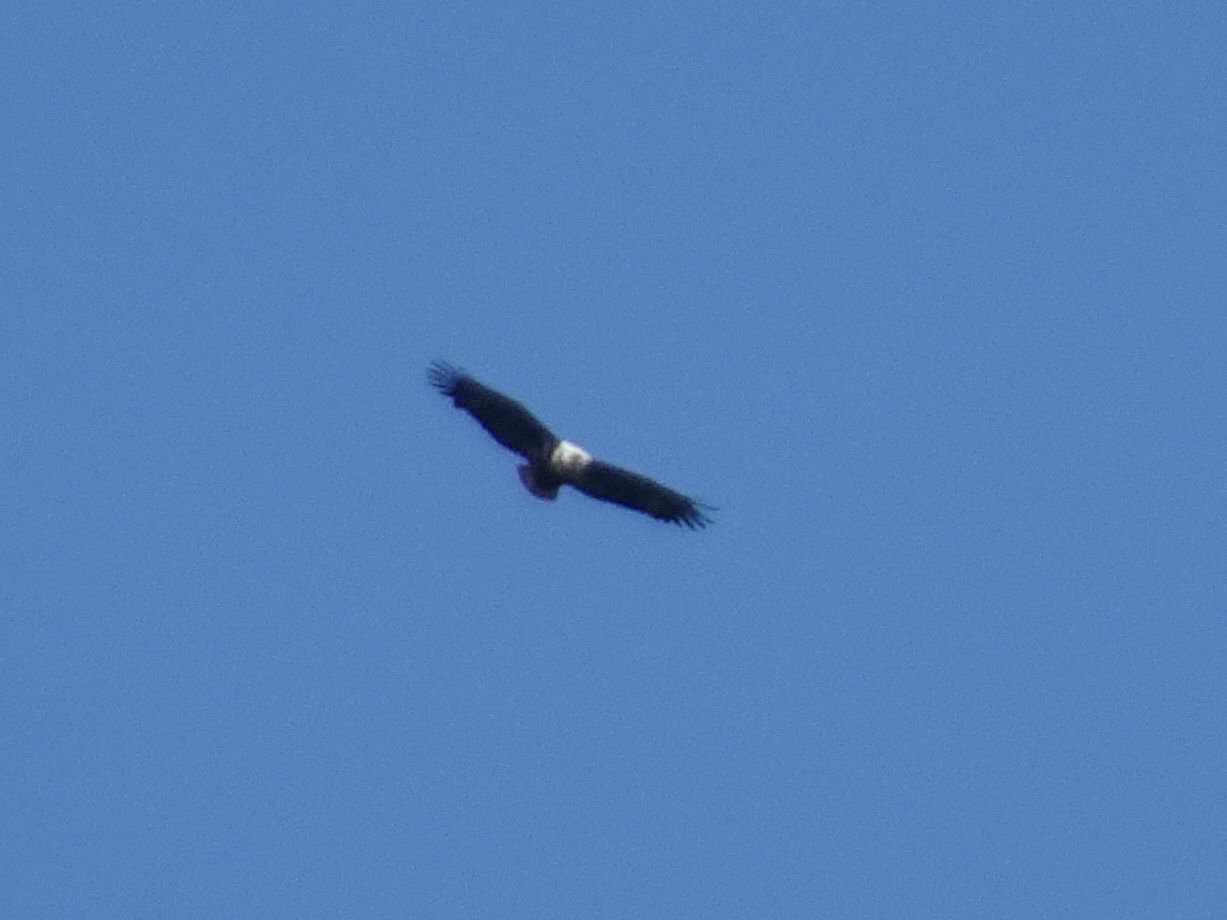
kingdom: Animalia
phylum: Chordata
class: Aves
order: Accipitriformes
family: Accipitridae
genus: Haliaeetus
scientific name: Haliaeetus vocifer
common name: African fish eagle
